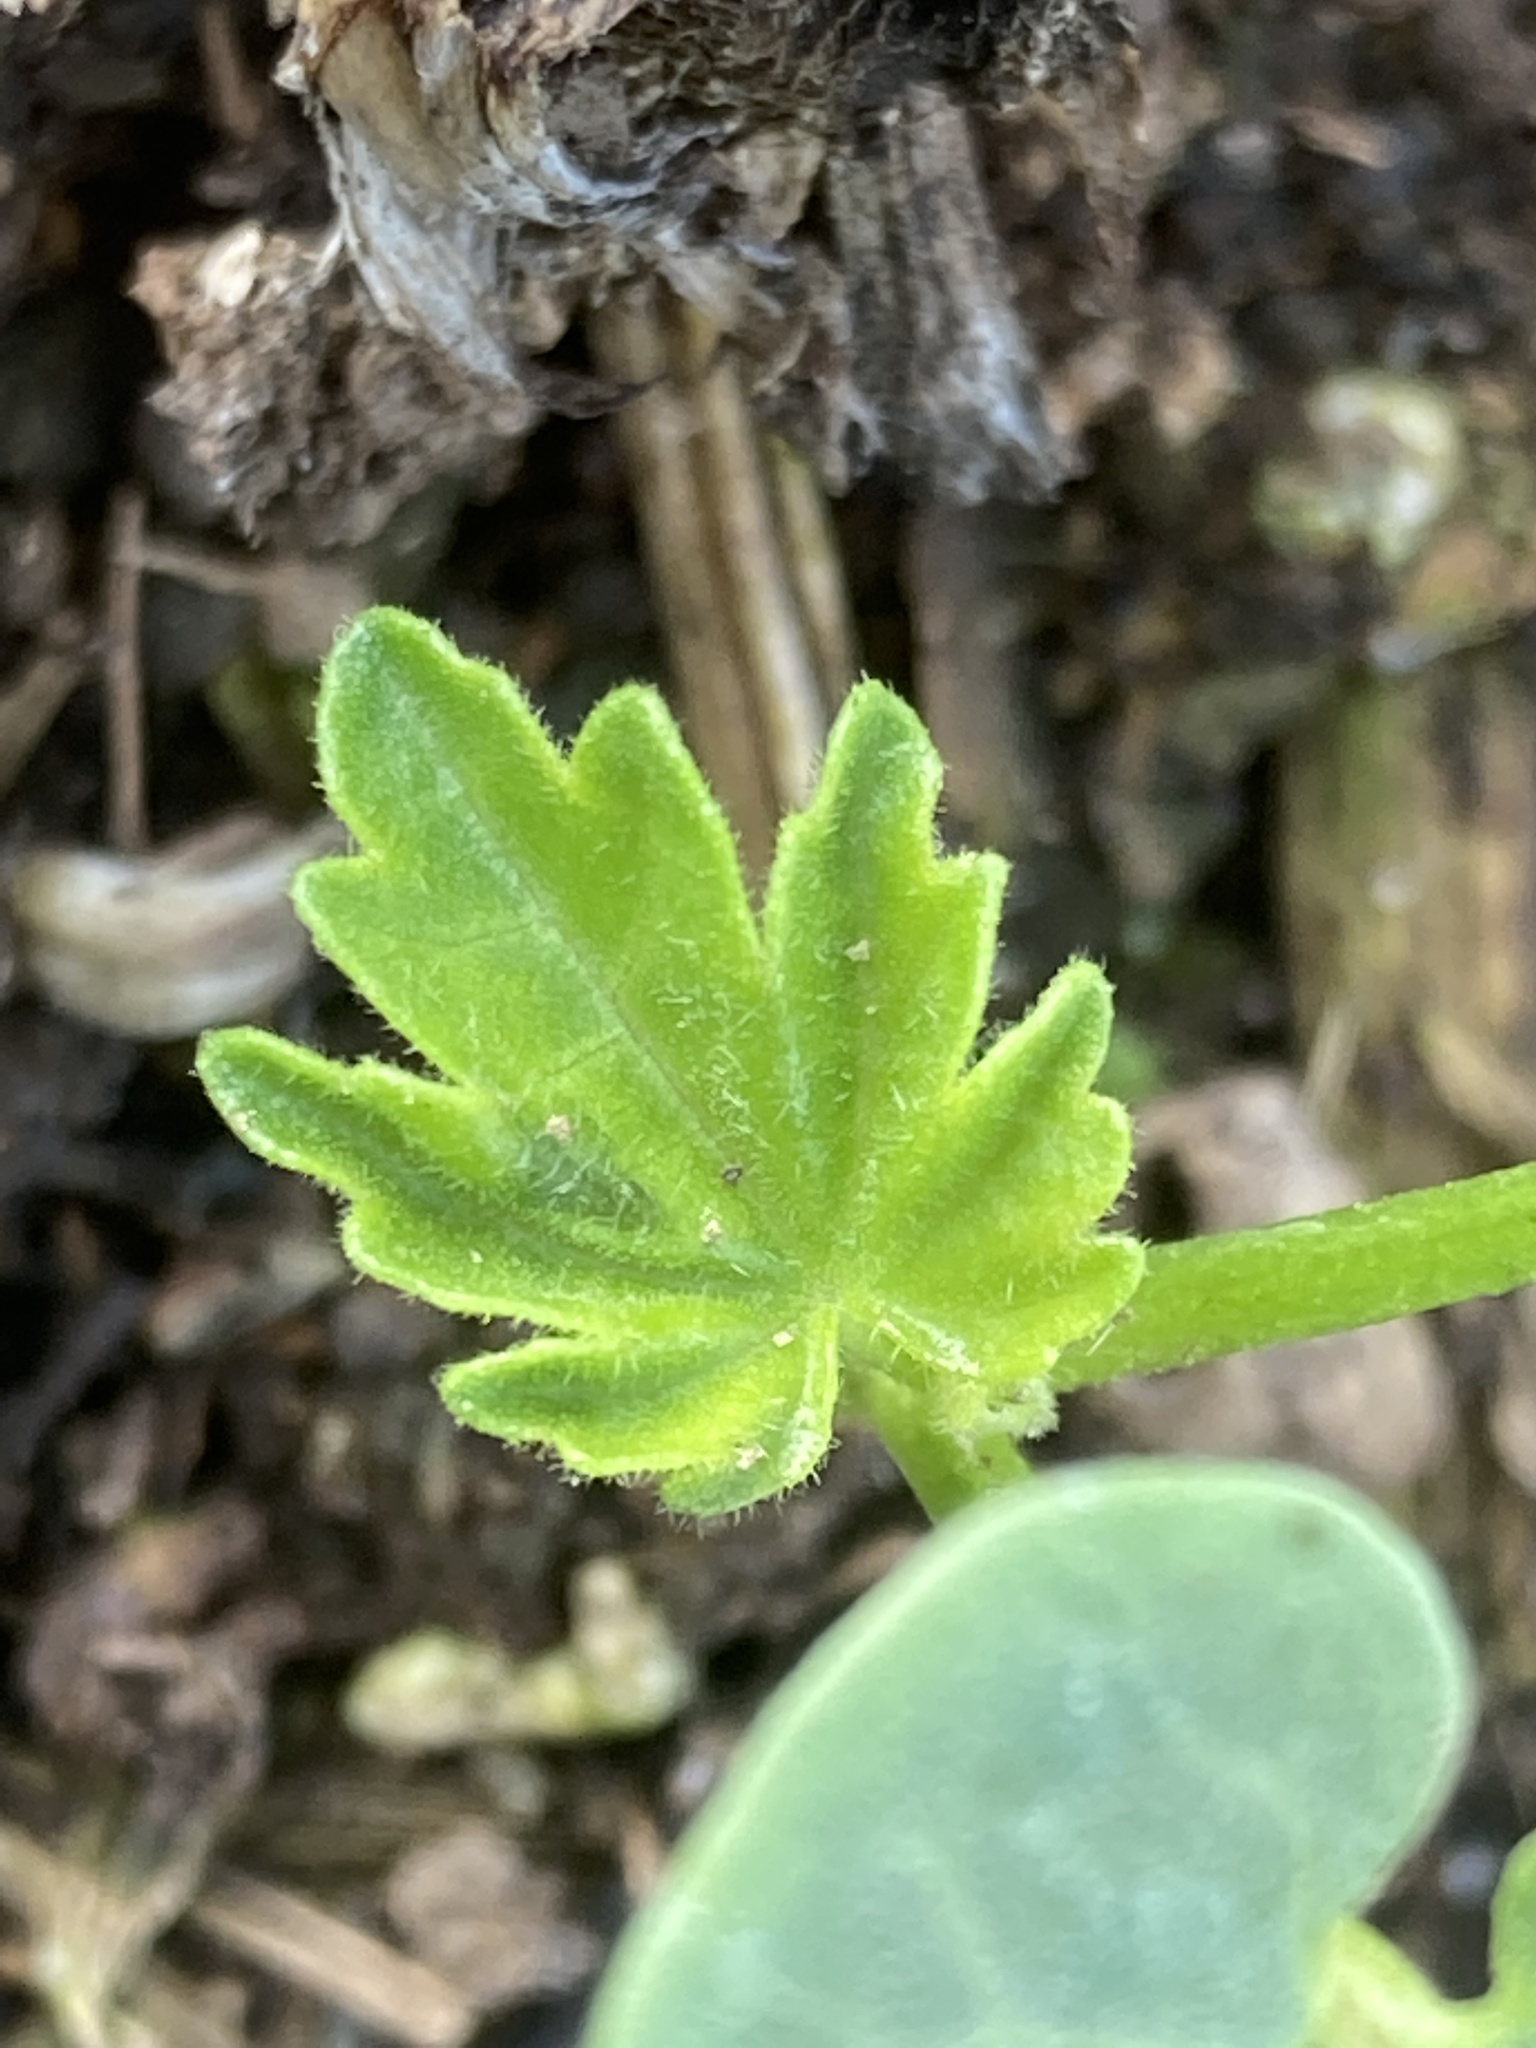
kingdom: Plantae
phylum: Tracheophyta
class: Magnoliopsida
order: Malvales
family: Malvaceae
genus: Malva
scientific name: Malva assurgentiflora
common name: Island mallow
